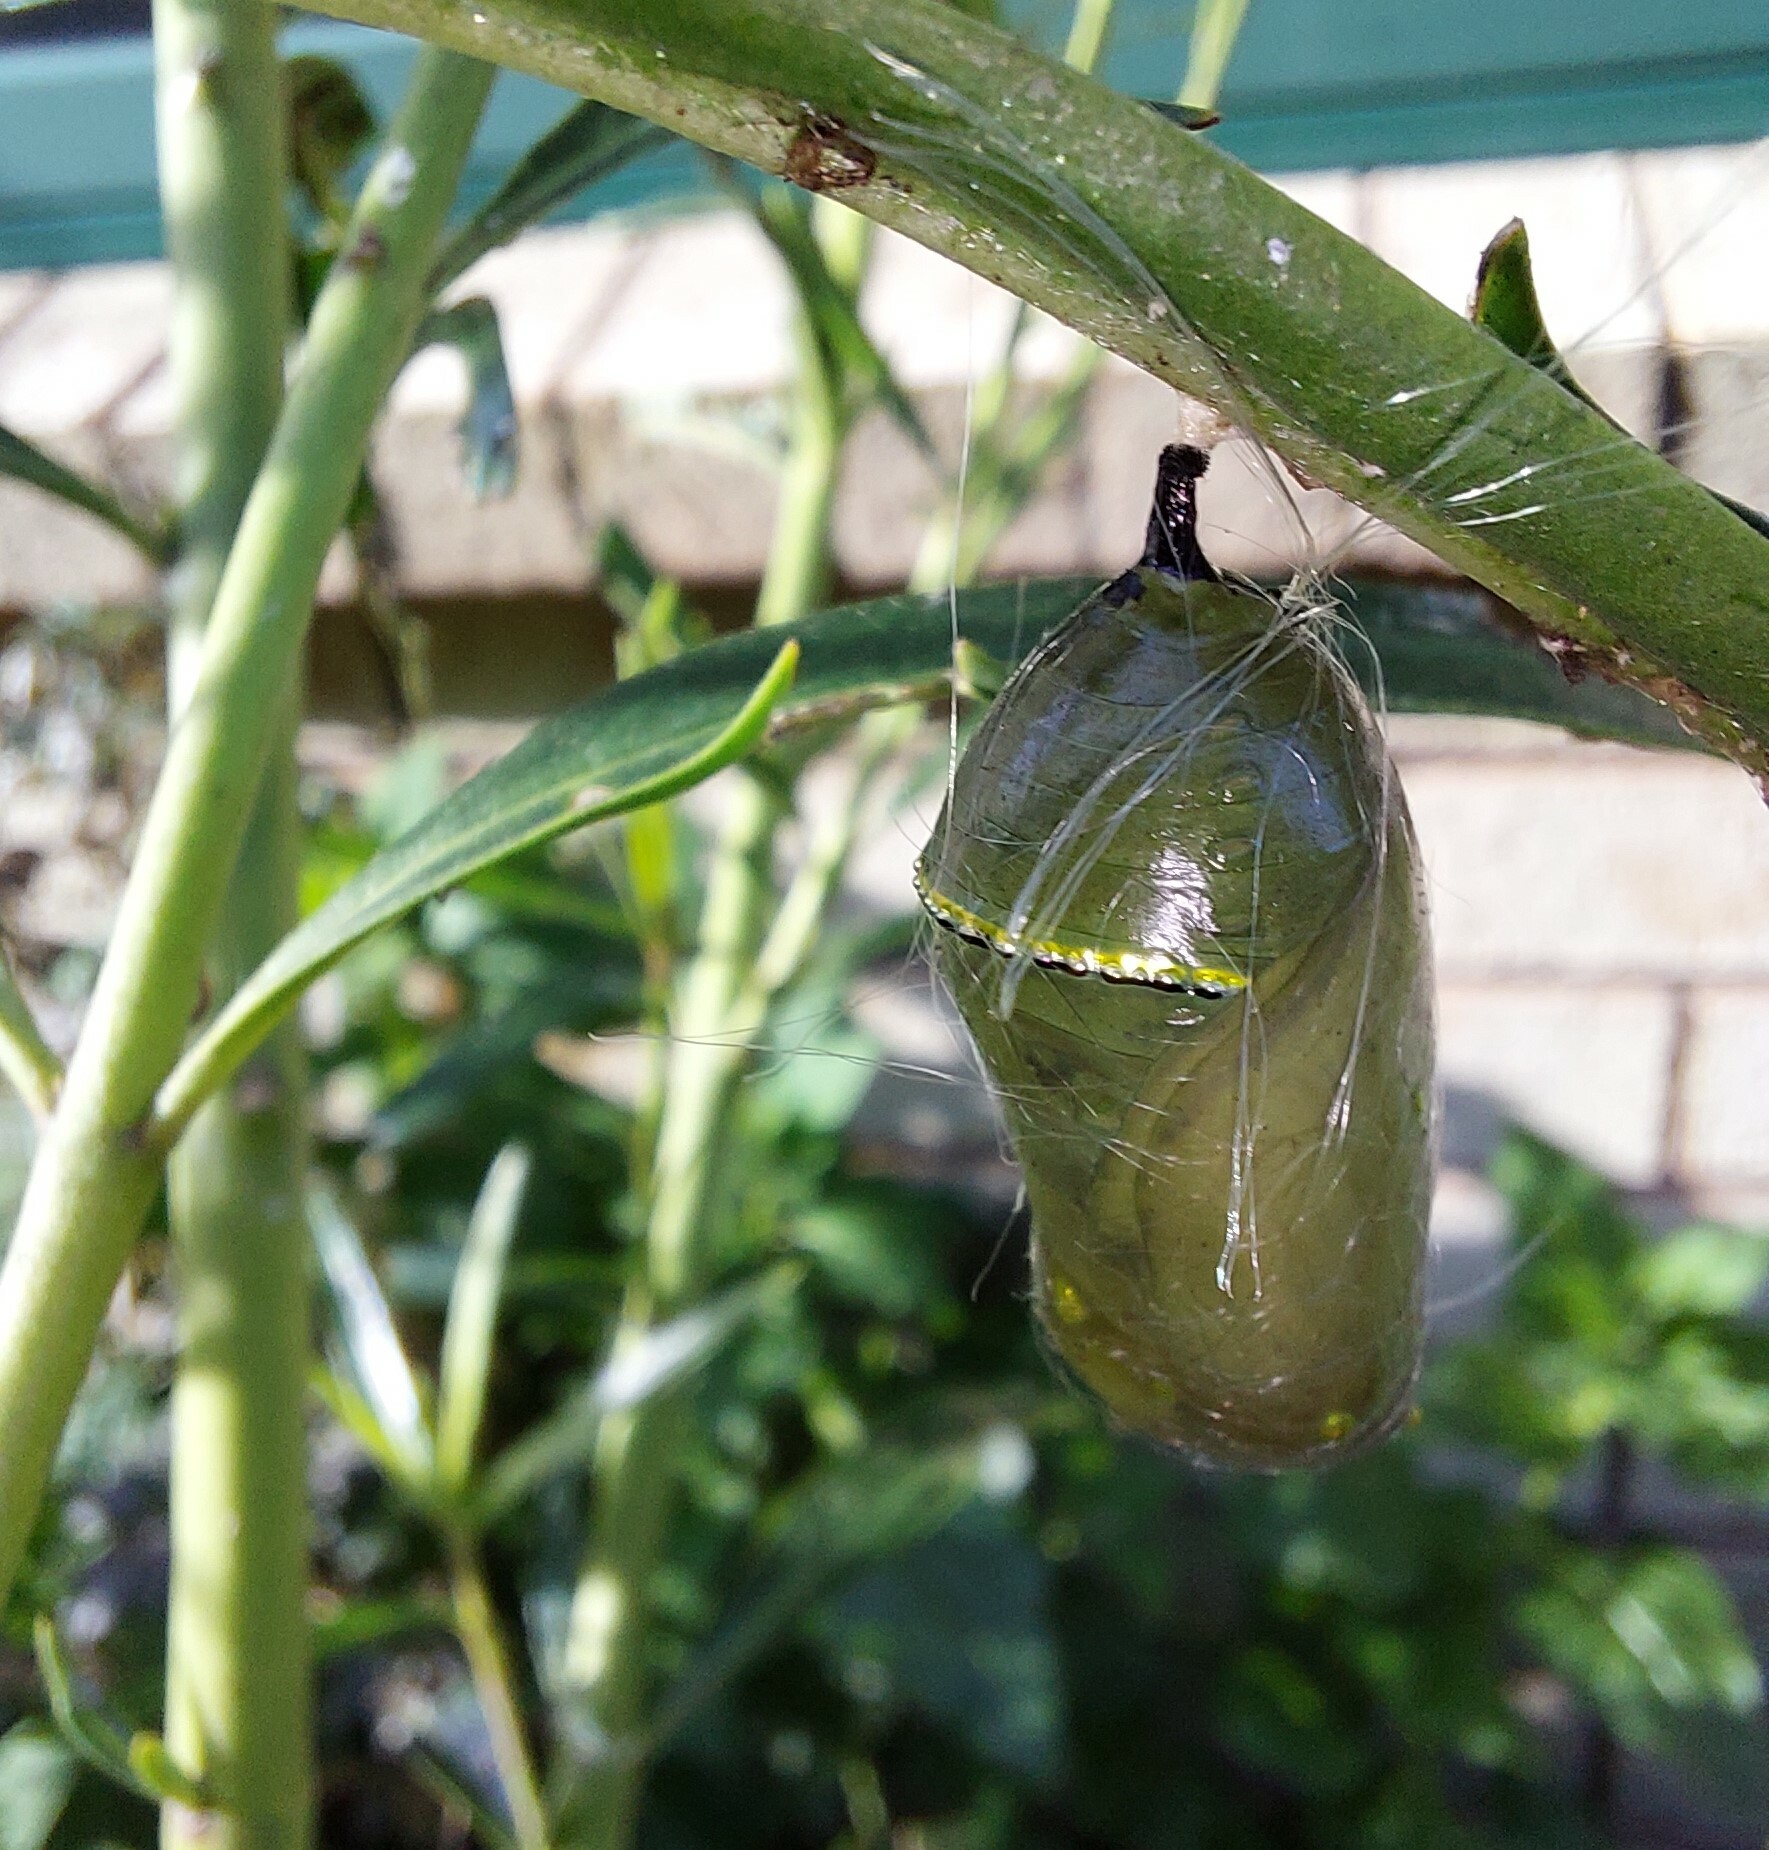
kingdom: Animalia
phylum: Arthropoda
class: Insecta
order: Lepidoptera
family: Nymphalidae
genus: Danaus
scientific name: Danaus plexippus
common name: Monarch
